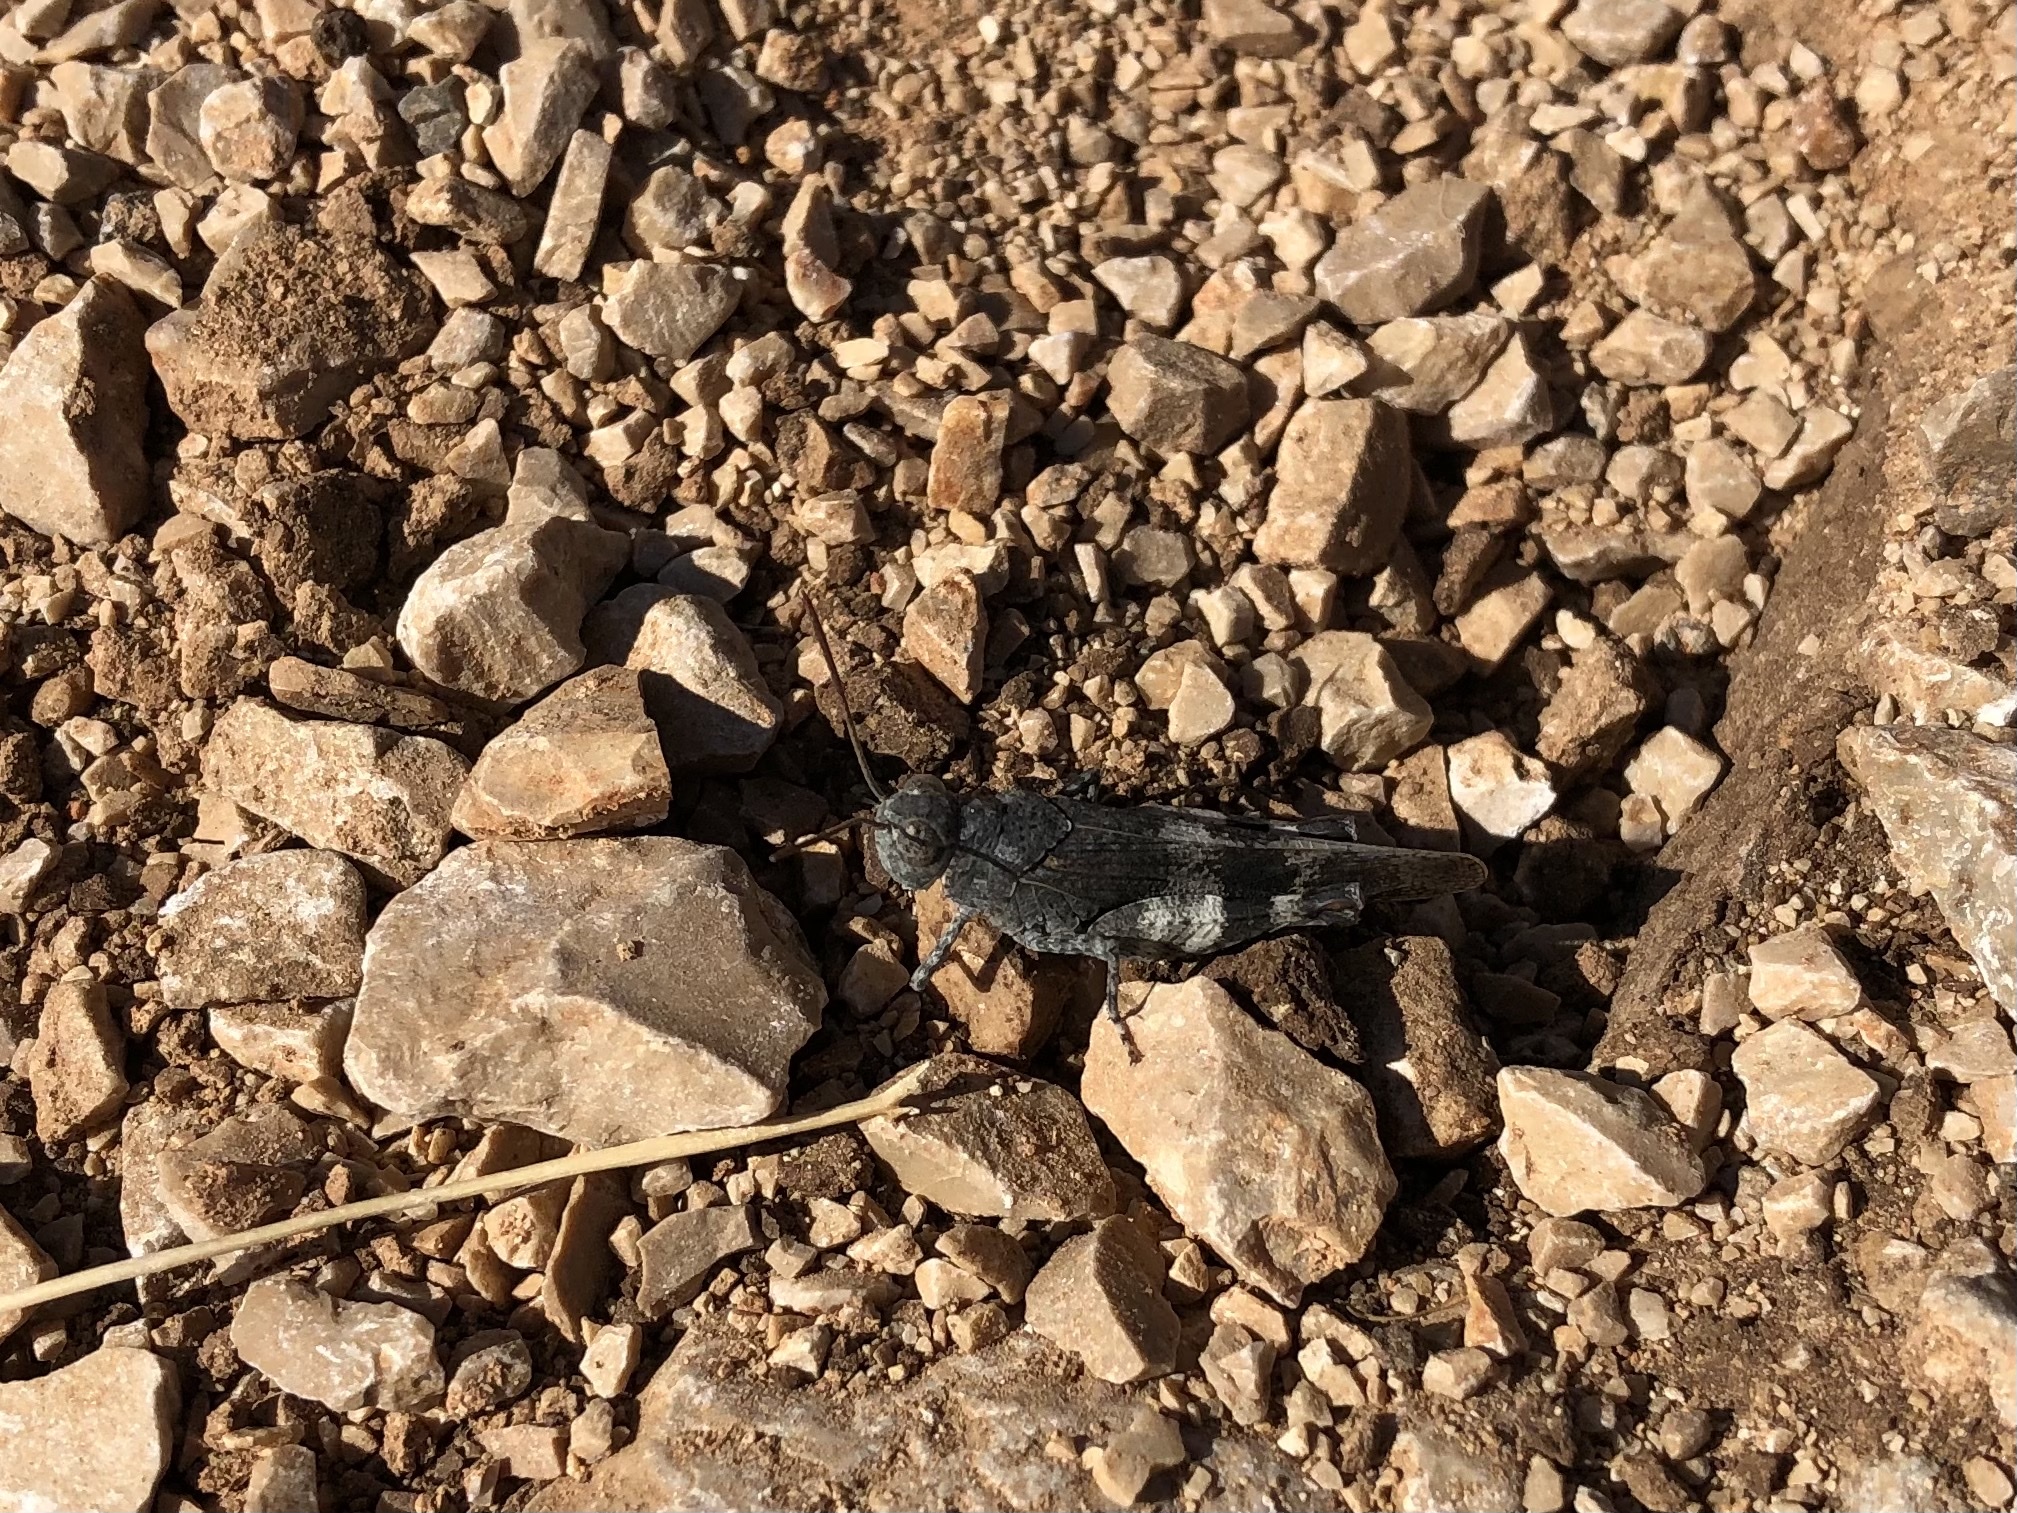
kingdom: Animalia
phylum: Arthropoda
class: Insecta
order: Orthoptera
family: Acrididae
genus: Oedipoda
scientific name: Oedipoda germanica
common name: Red band-winged grasshopper
